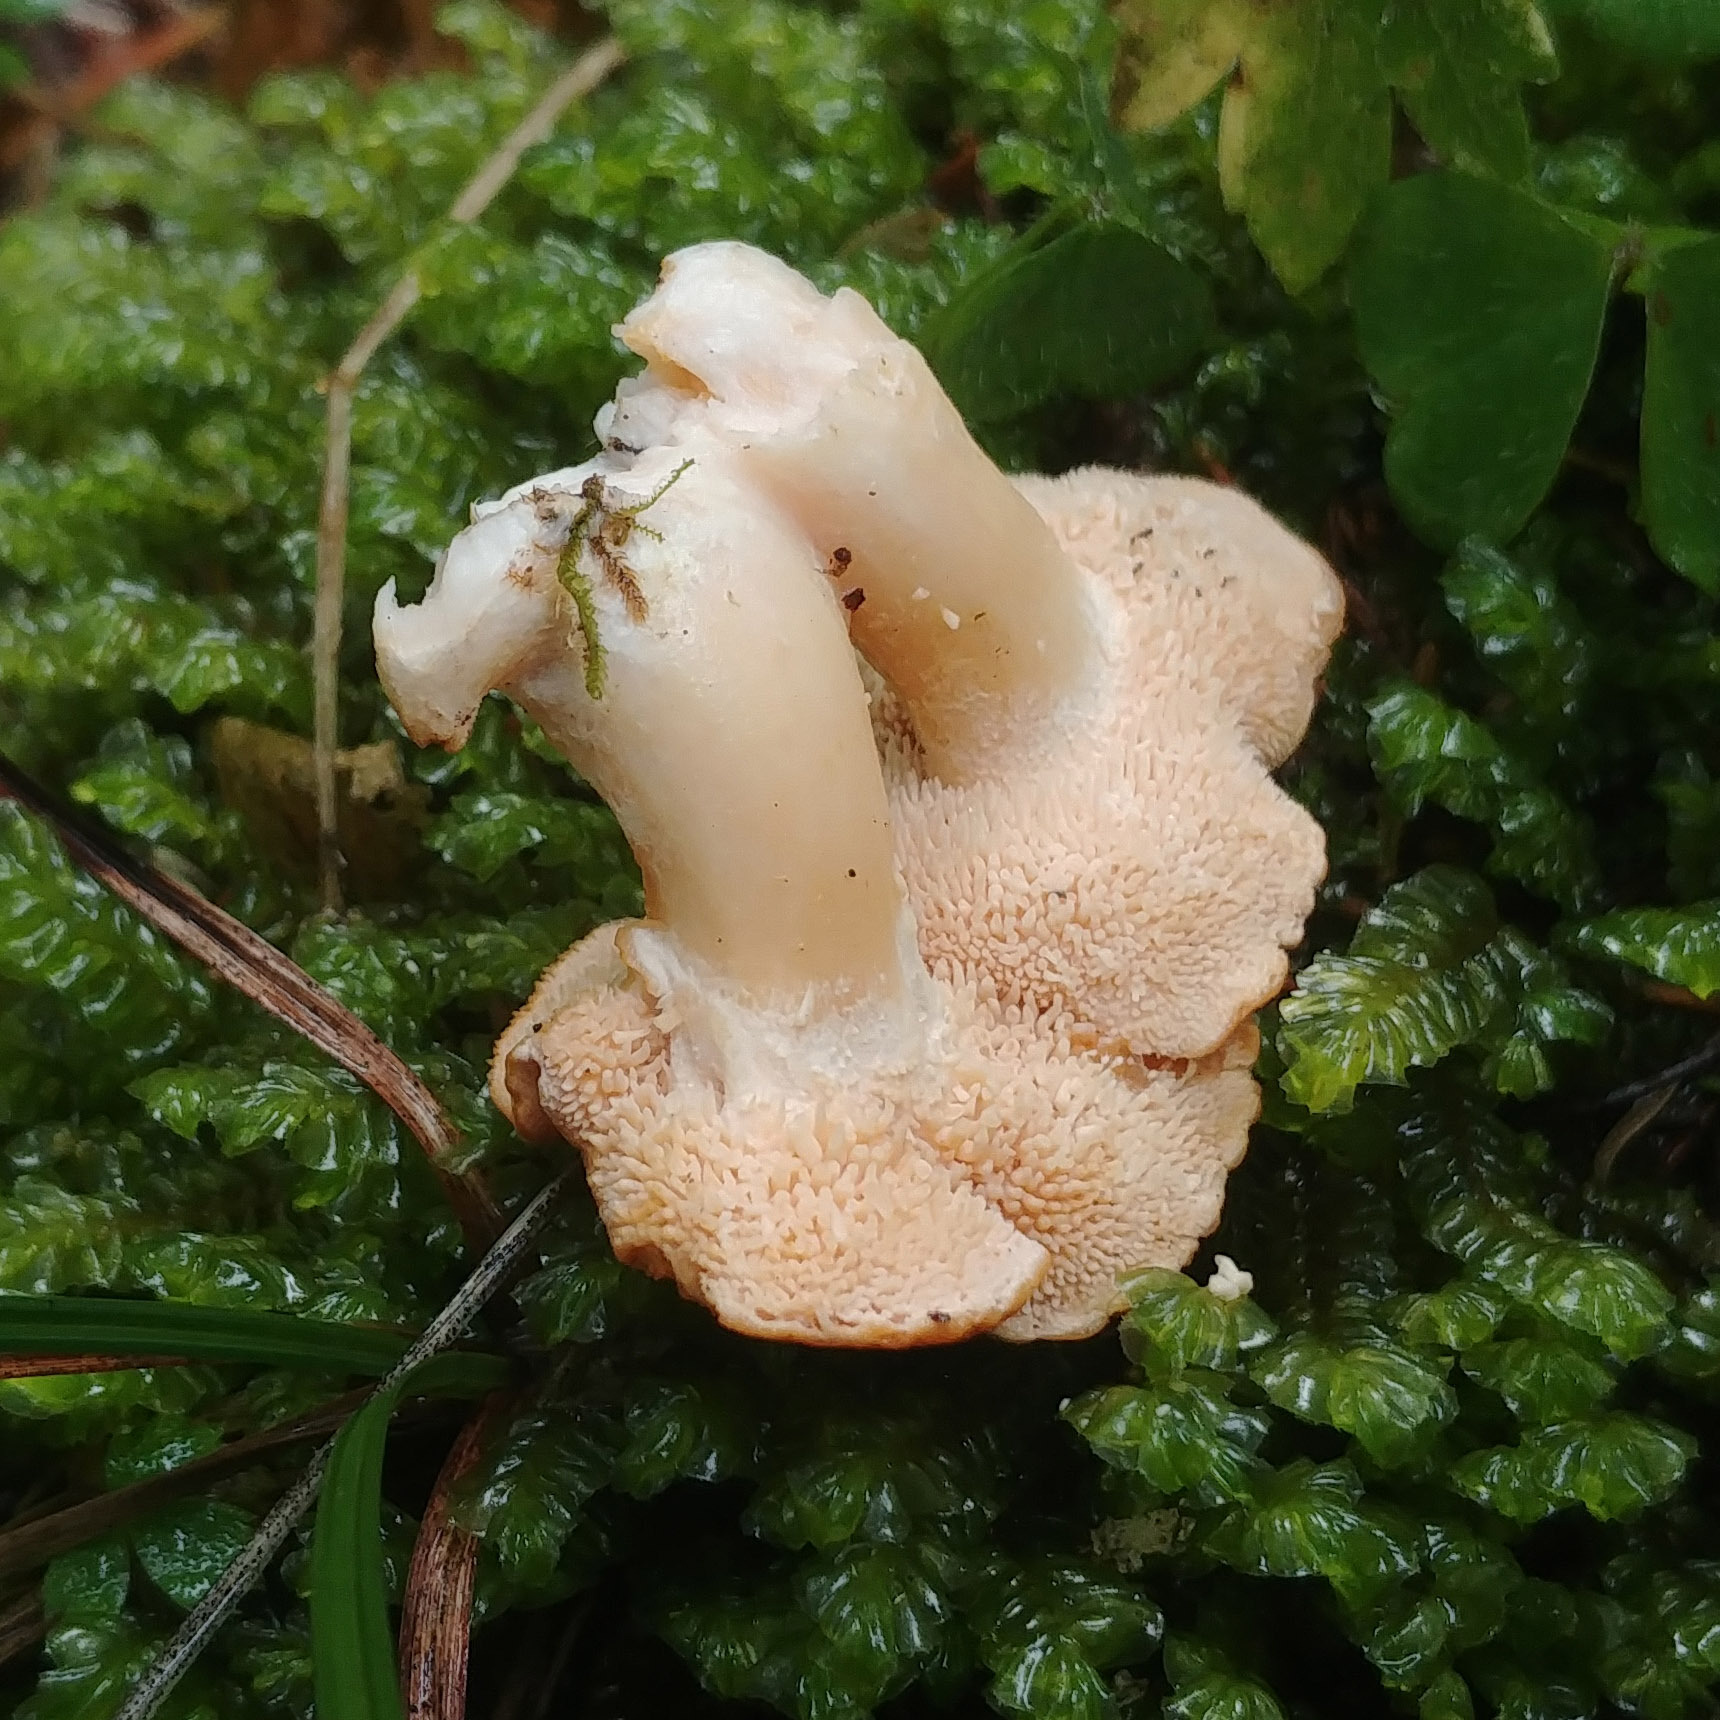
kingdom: Fungi
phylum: Basidiomycota
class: Agaricomycetes
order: Cantharellales
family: Hydnaceae
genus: Hydnum
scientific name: Hydnum rufescens
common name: Terracotta hedgehog
